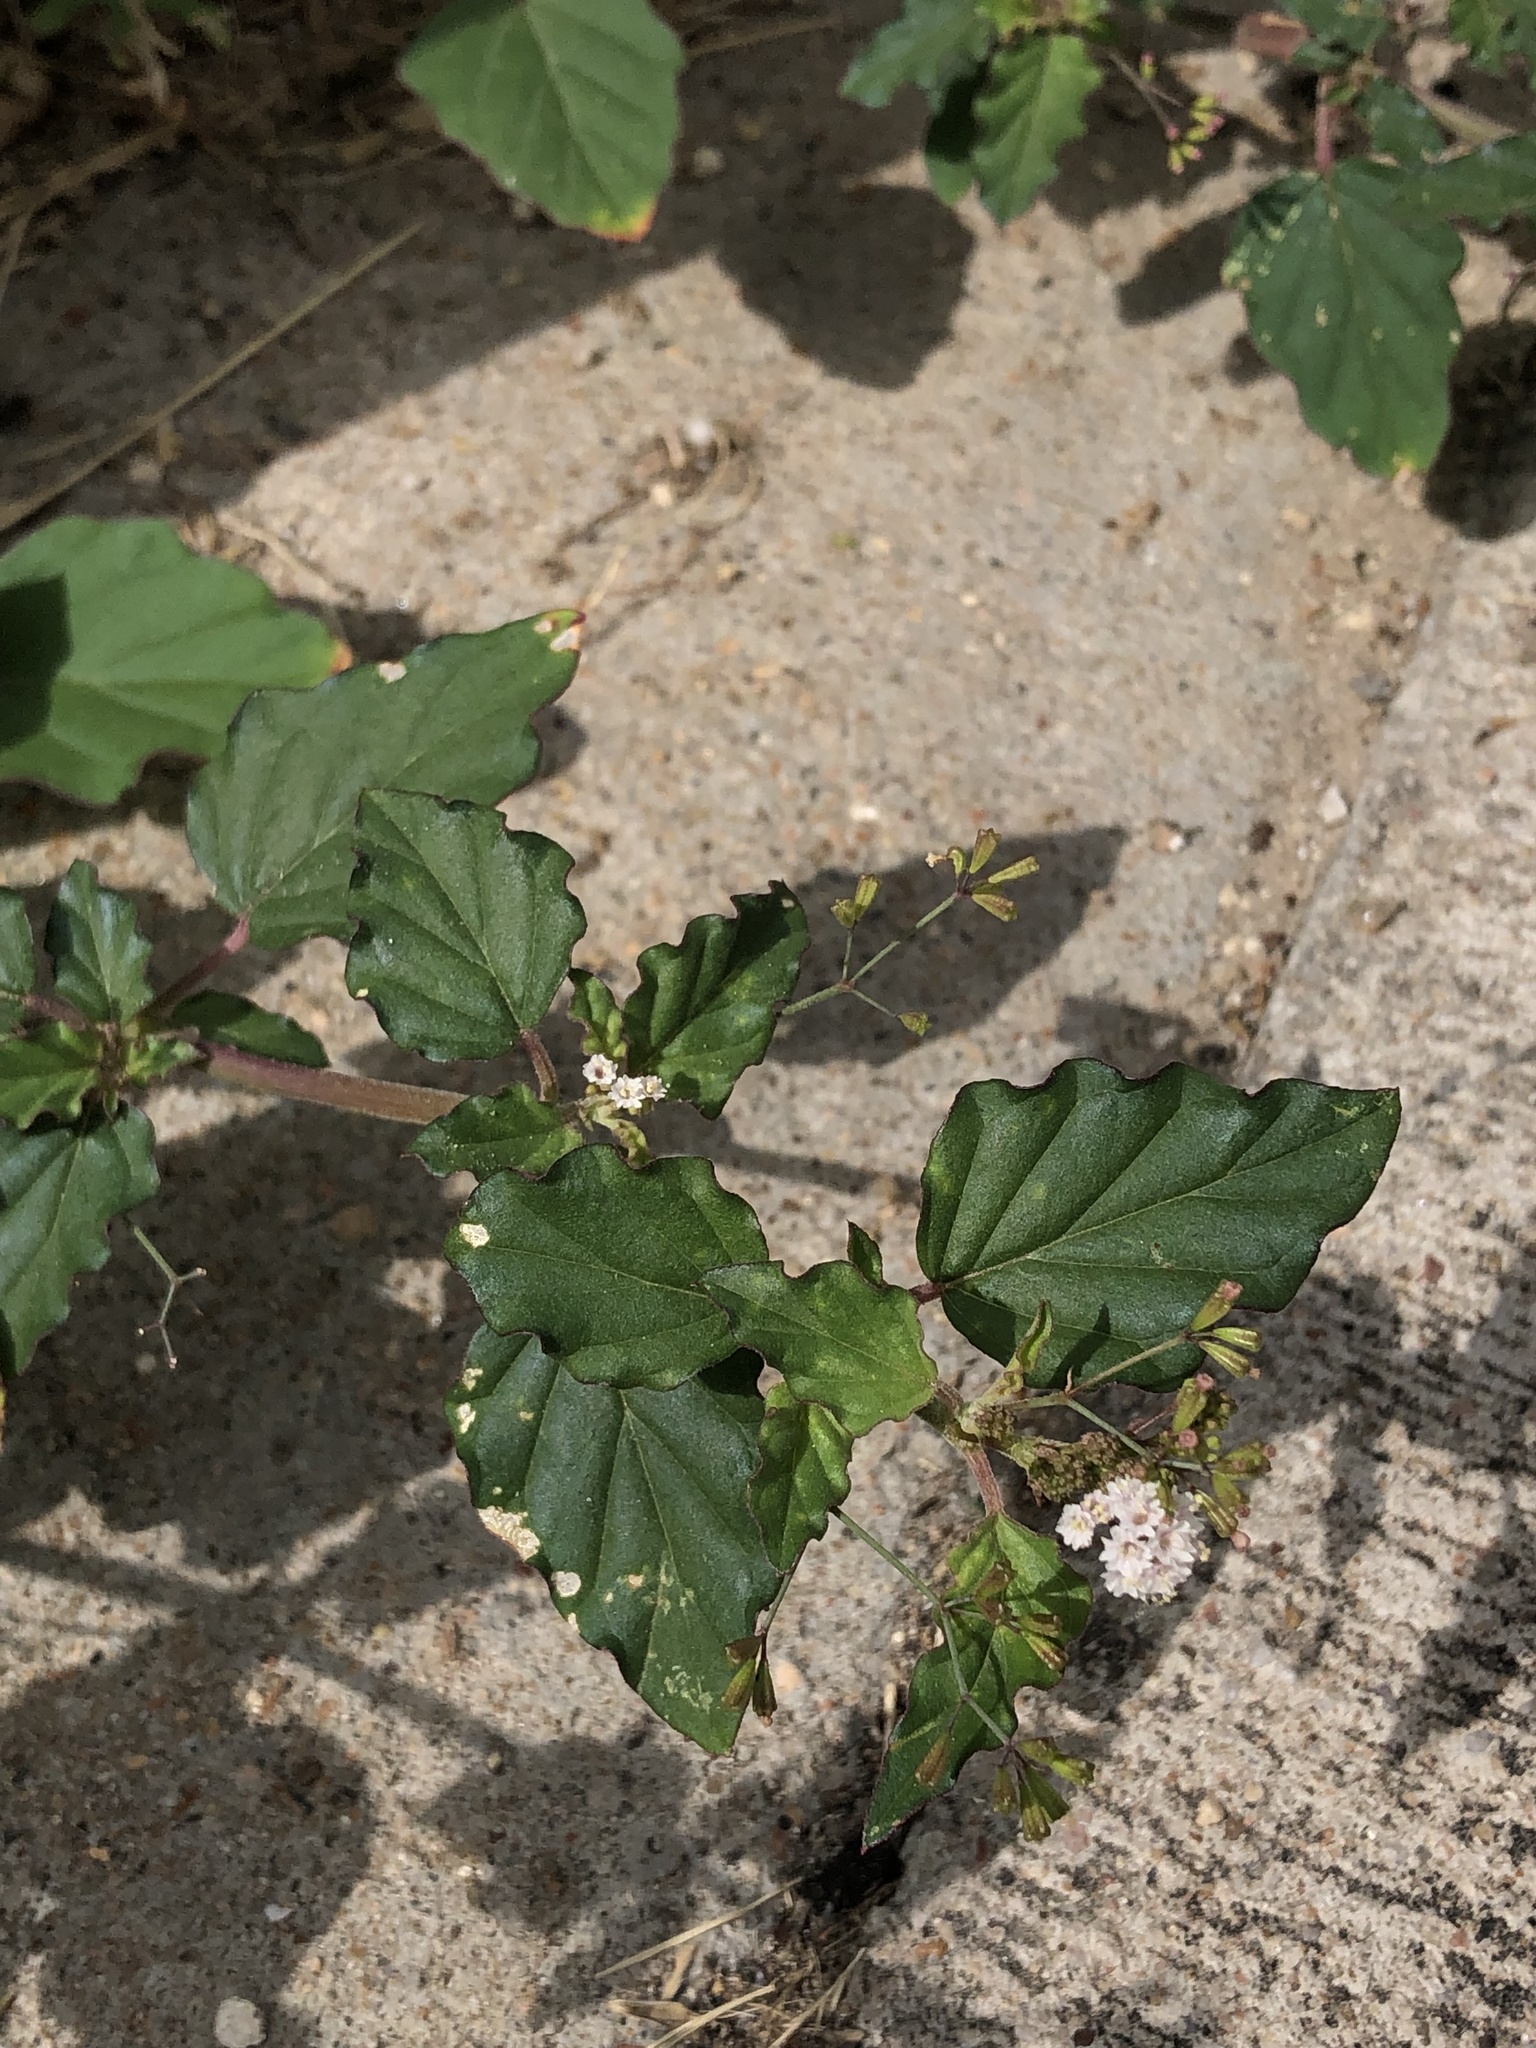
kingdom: Plantae
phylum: Tracheophyta
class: Magnoliopsida
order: Caryophyllales
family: Nyctaginaceae
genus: Boerhavia
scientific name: Boerhavia erecta
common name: Erect spiderling
